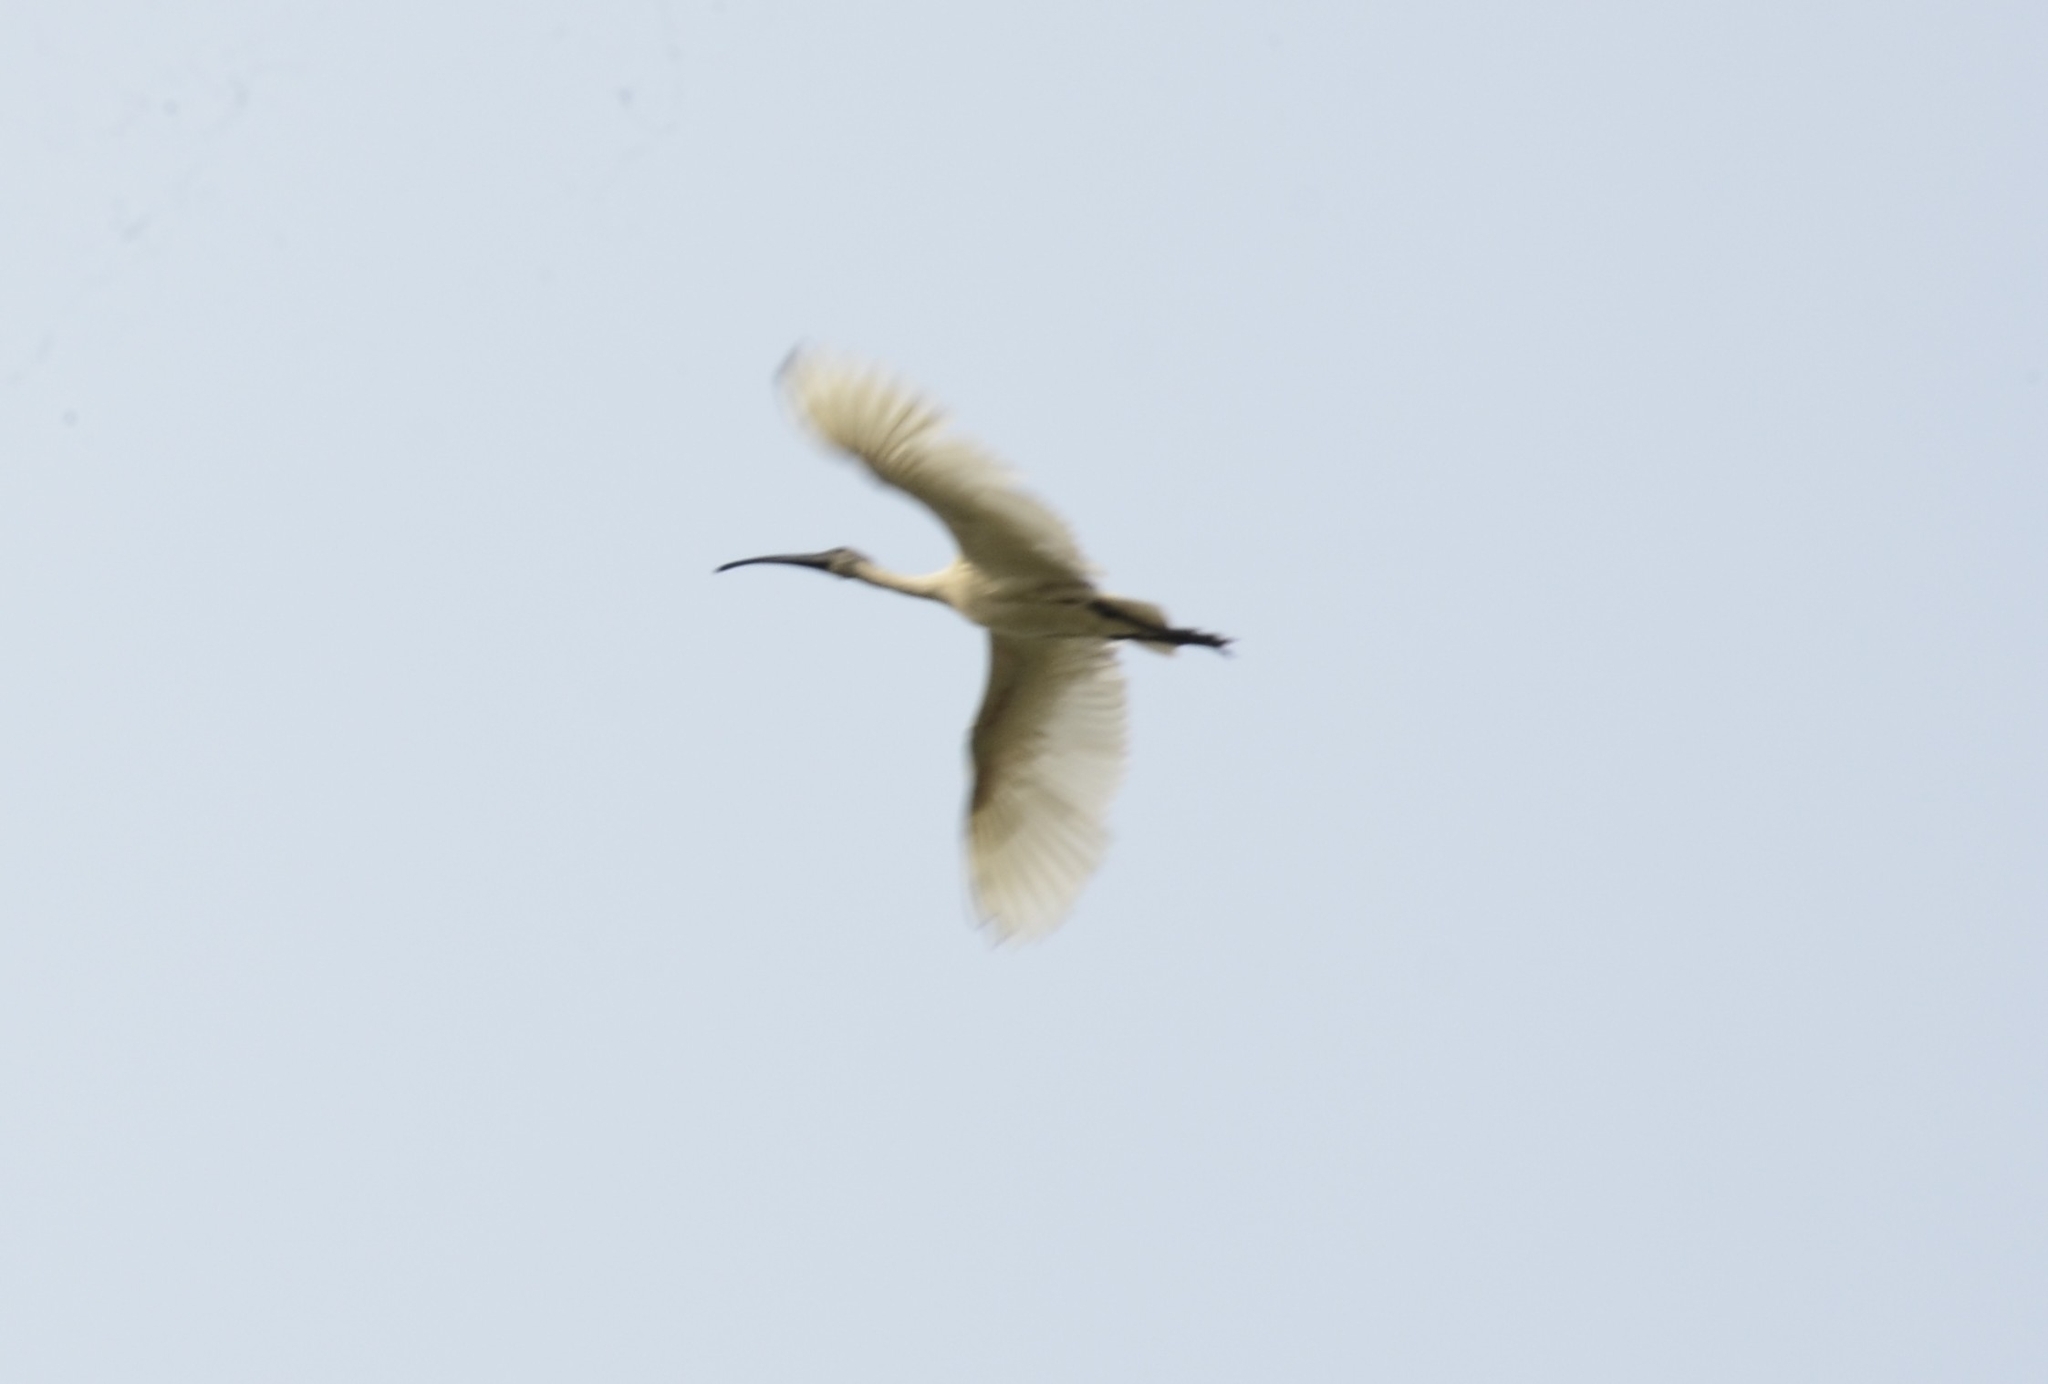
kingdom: Animalia
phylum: Chordata
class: Aves
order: Pelecaniformes
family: Threskiornithidae
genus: Threskiornis
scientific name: Threskiornis melanocephalus
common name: Black-headed ibis
